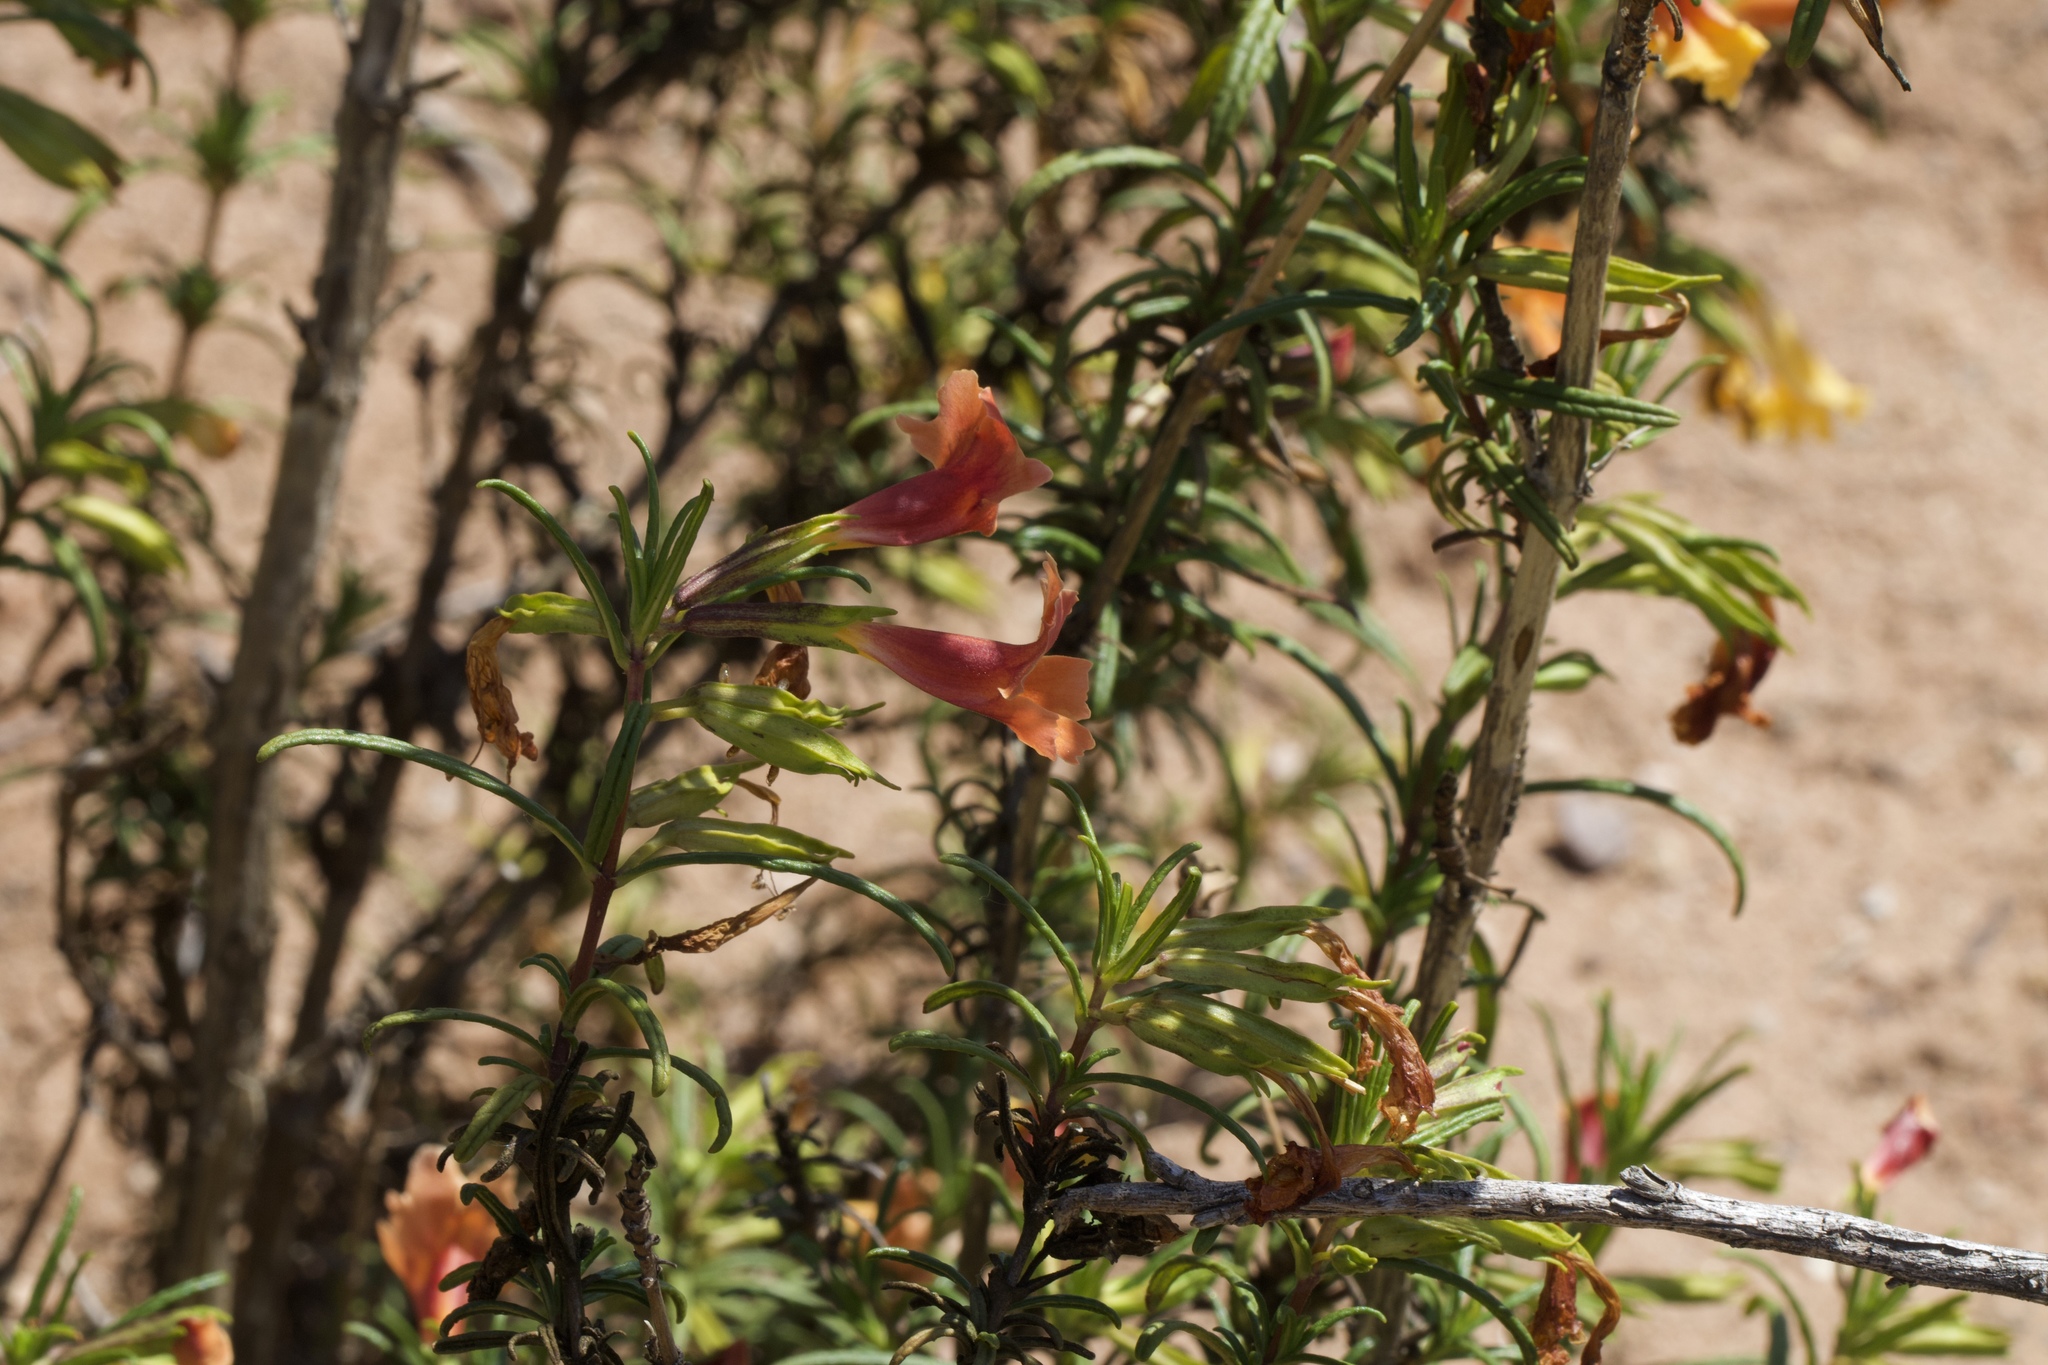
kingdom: Plantae
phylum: Tracheophyta
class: Magnoliopsida
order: Lamiales
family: Phrymaceae
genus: Diplacus
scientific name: Diplacus australis
